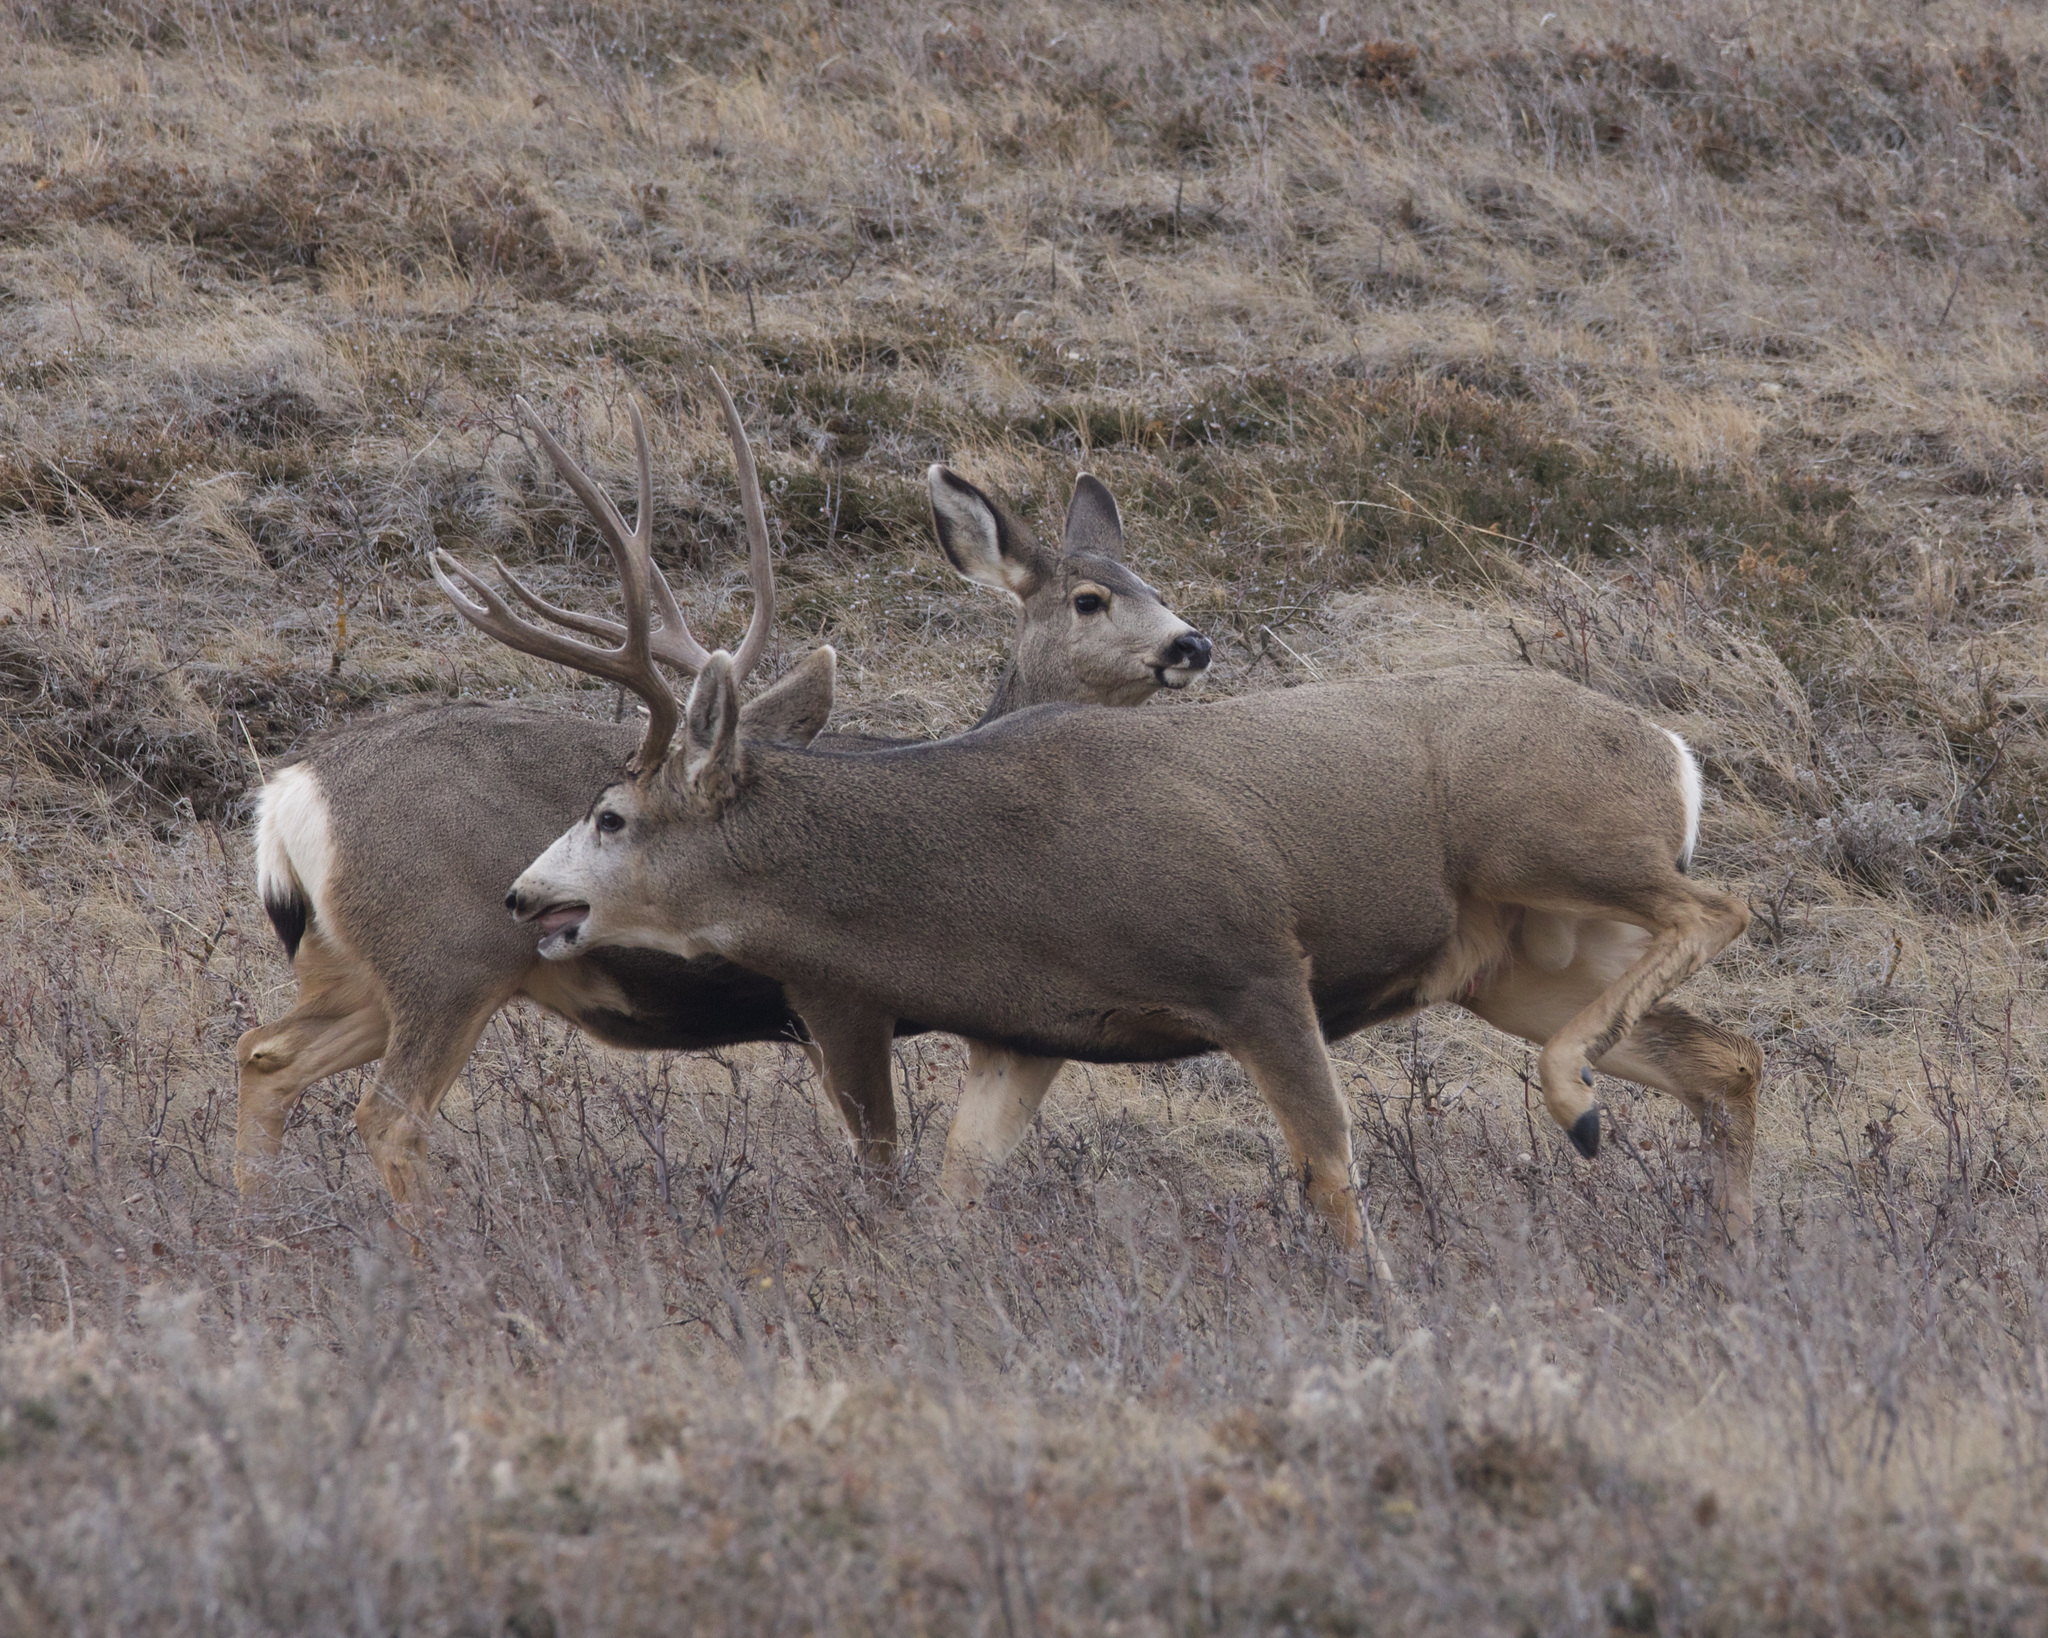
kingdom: Animalia
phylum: Chordata
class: Mammalia
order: Artiodactyla
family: Cervidae
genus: Odocoileus
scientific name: Odocoileus hemionus
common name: Mule deer
